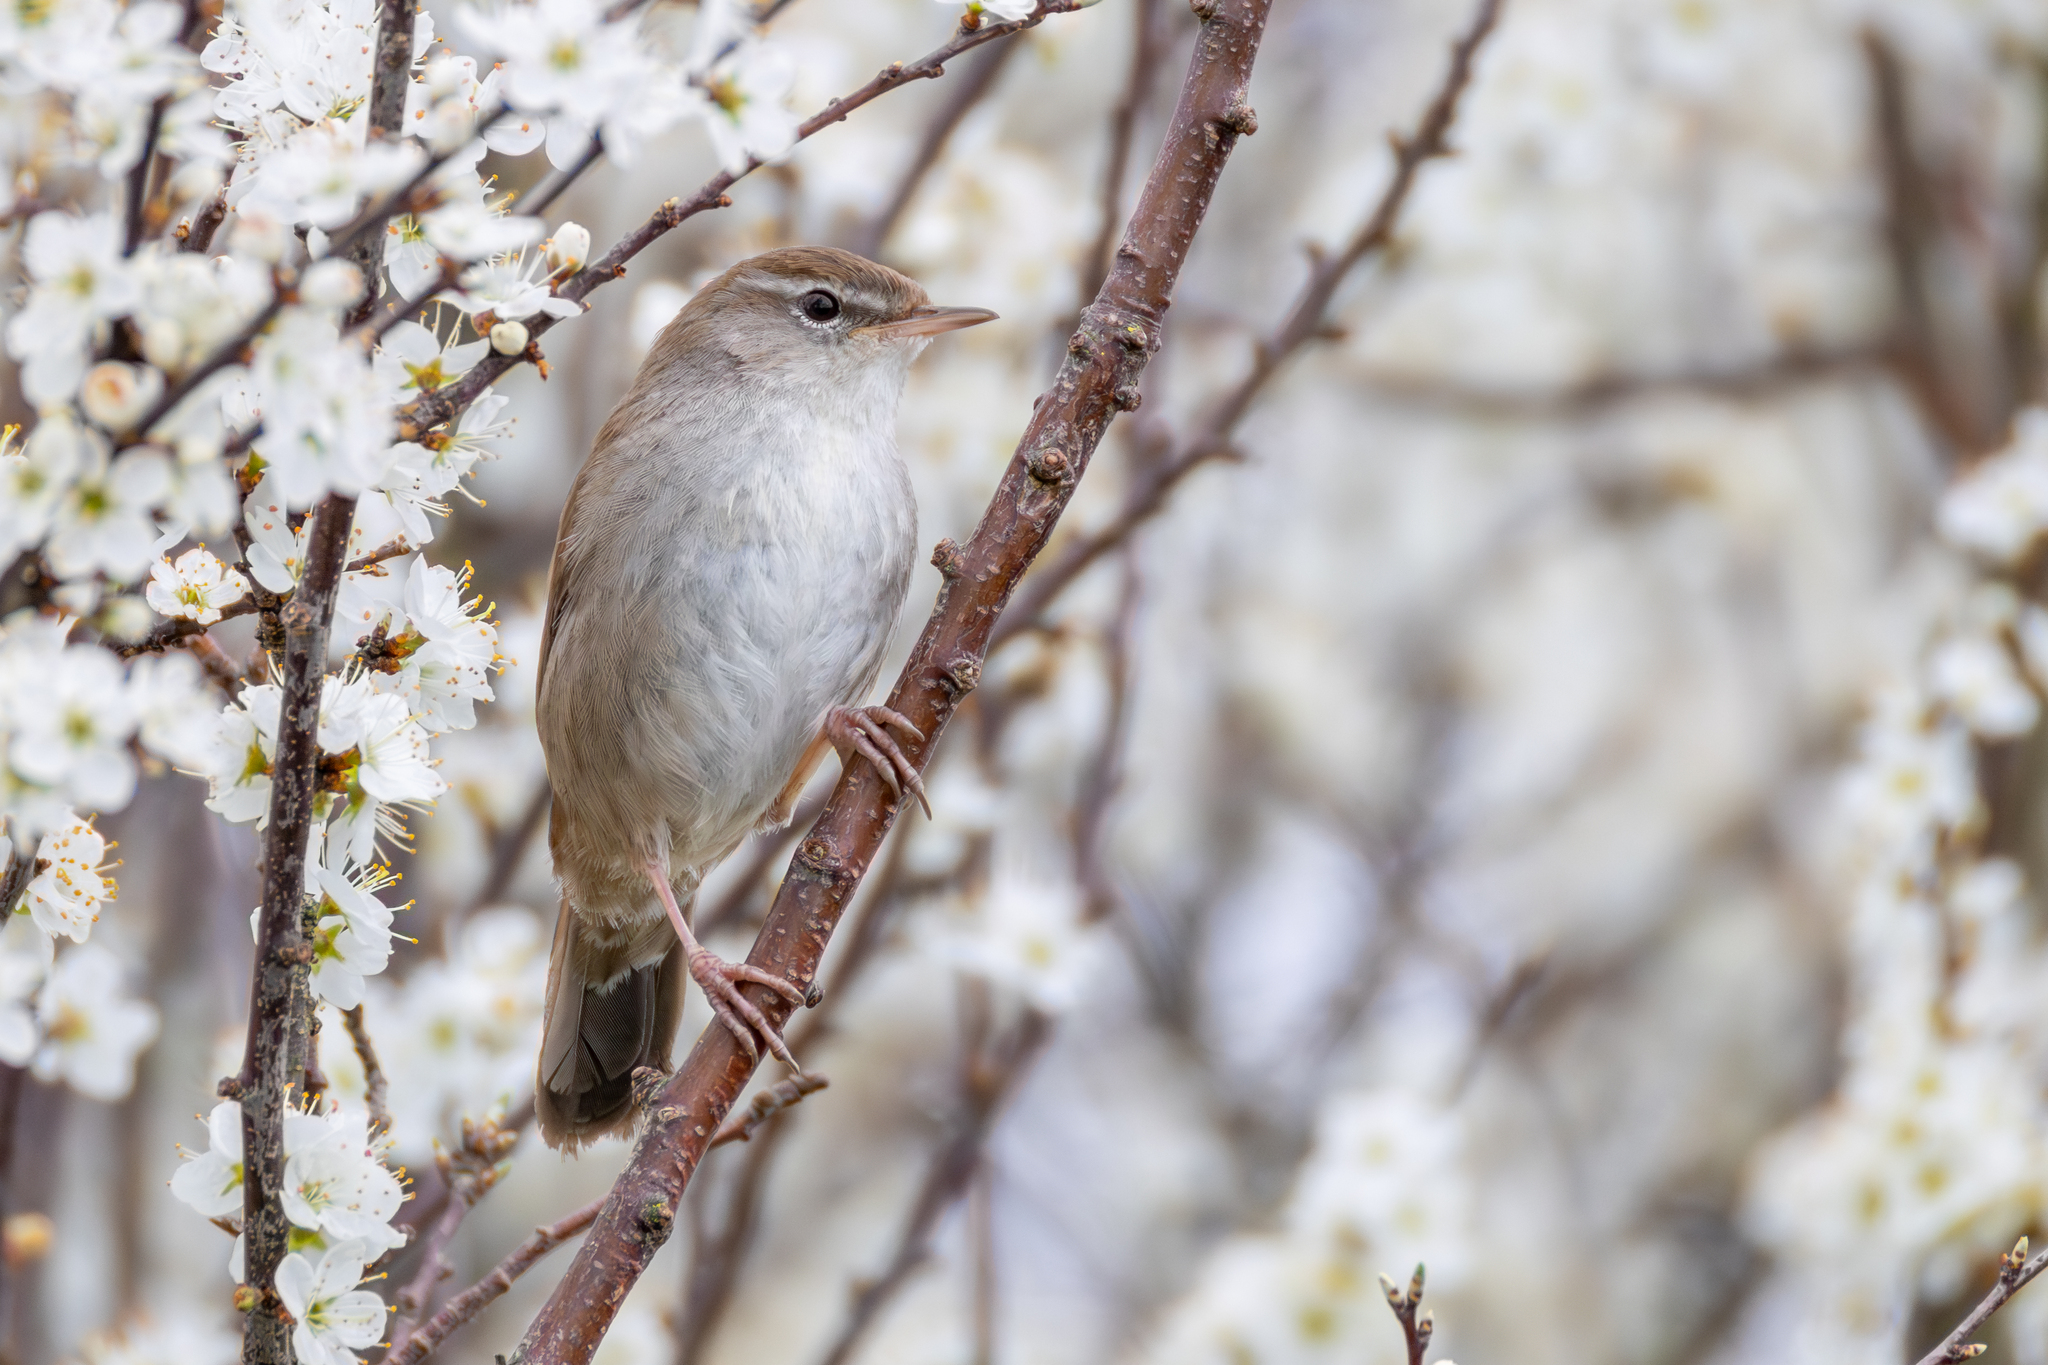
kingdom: Animalia
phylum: Chordata
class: Aves
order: Passeriformes
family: Cettiidae
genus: Cettia
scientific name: Cettia cetti
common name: Cetti's warbler
